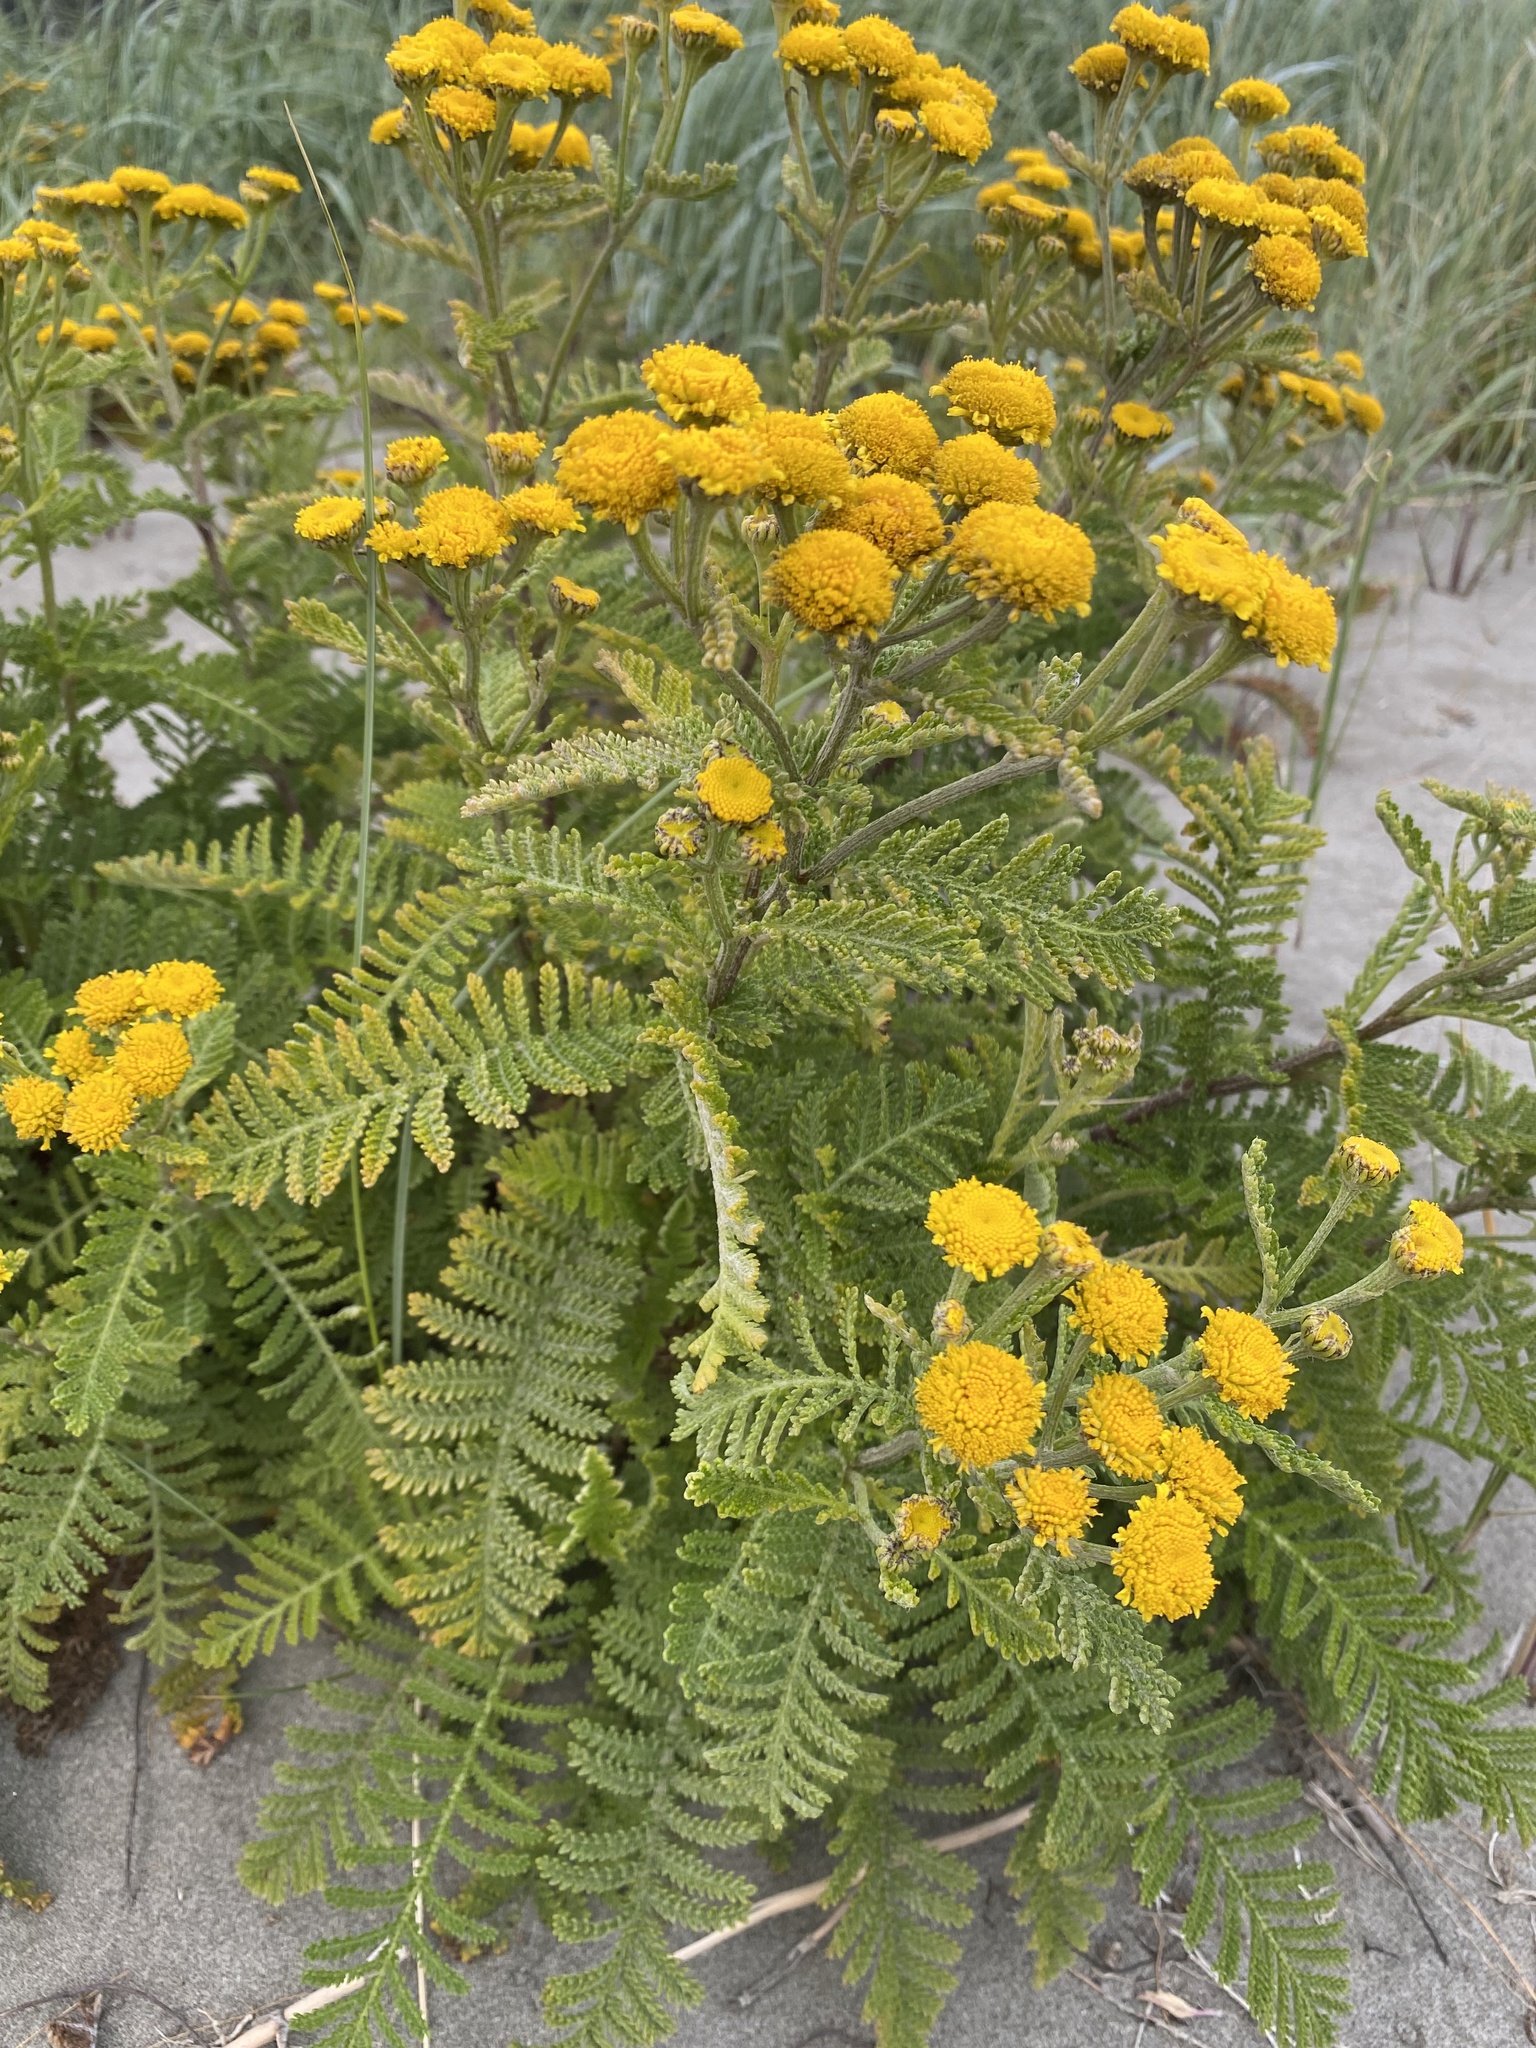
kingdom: Plantae
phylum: Tracheophyta
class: Magnoliopsida
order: Asterales
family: Asteraceae
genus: Tanacetum
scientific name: Tanacetum bipinnatum
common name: Dwarf tansy
